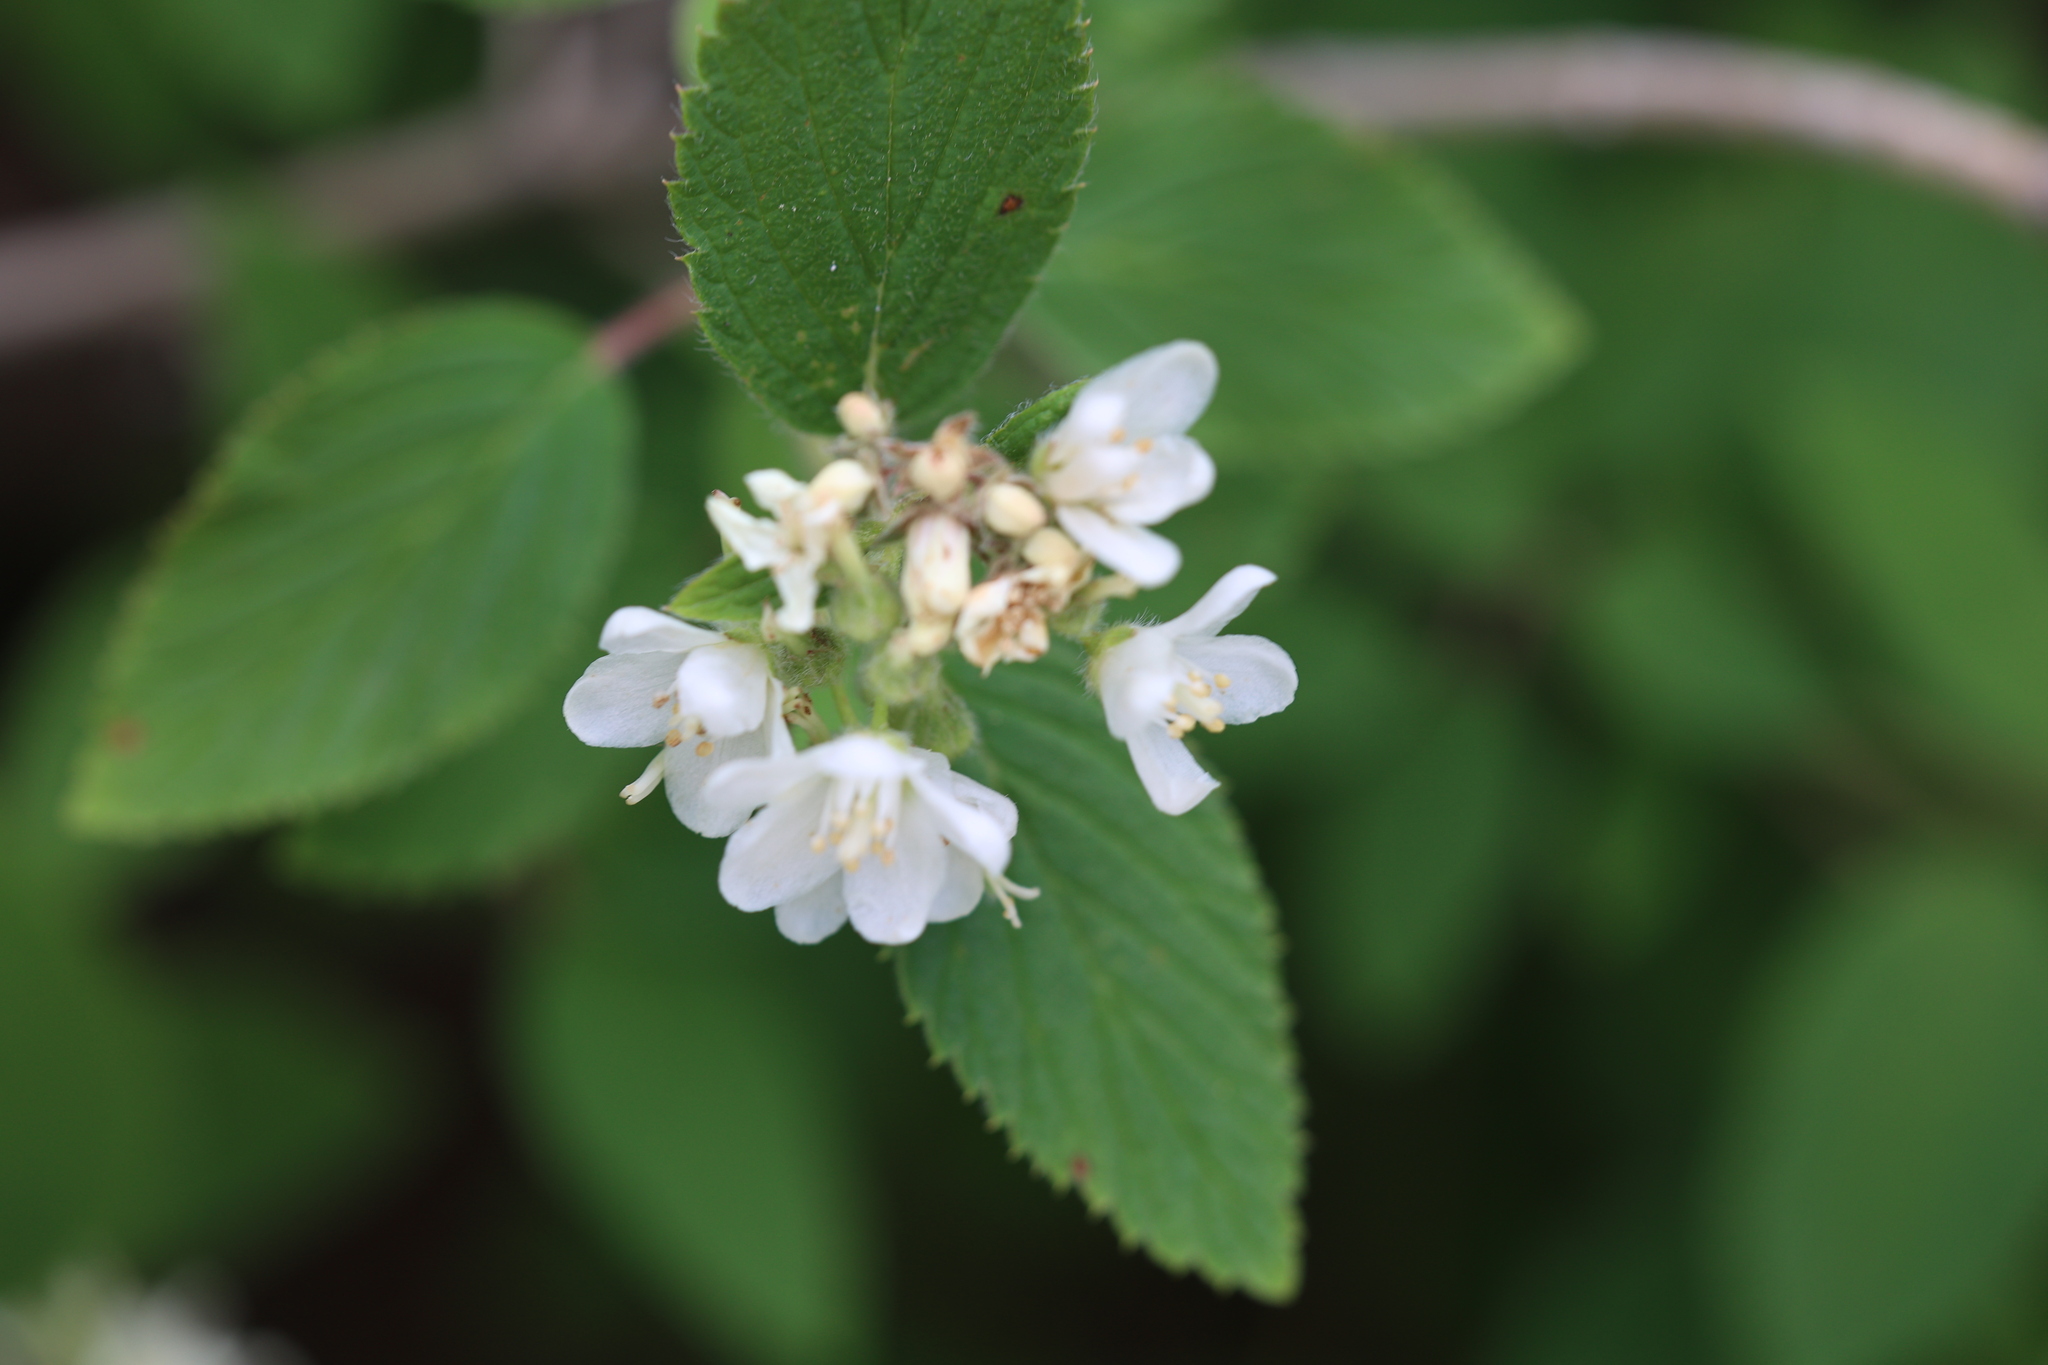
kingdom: Plantae
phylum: Tracheophyta
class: Magnoliopsida
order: Cornales
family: Hydrangeaceae
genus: Jamesia
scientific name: Jamesia americana
